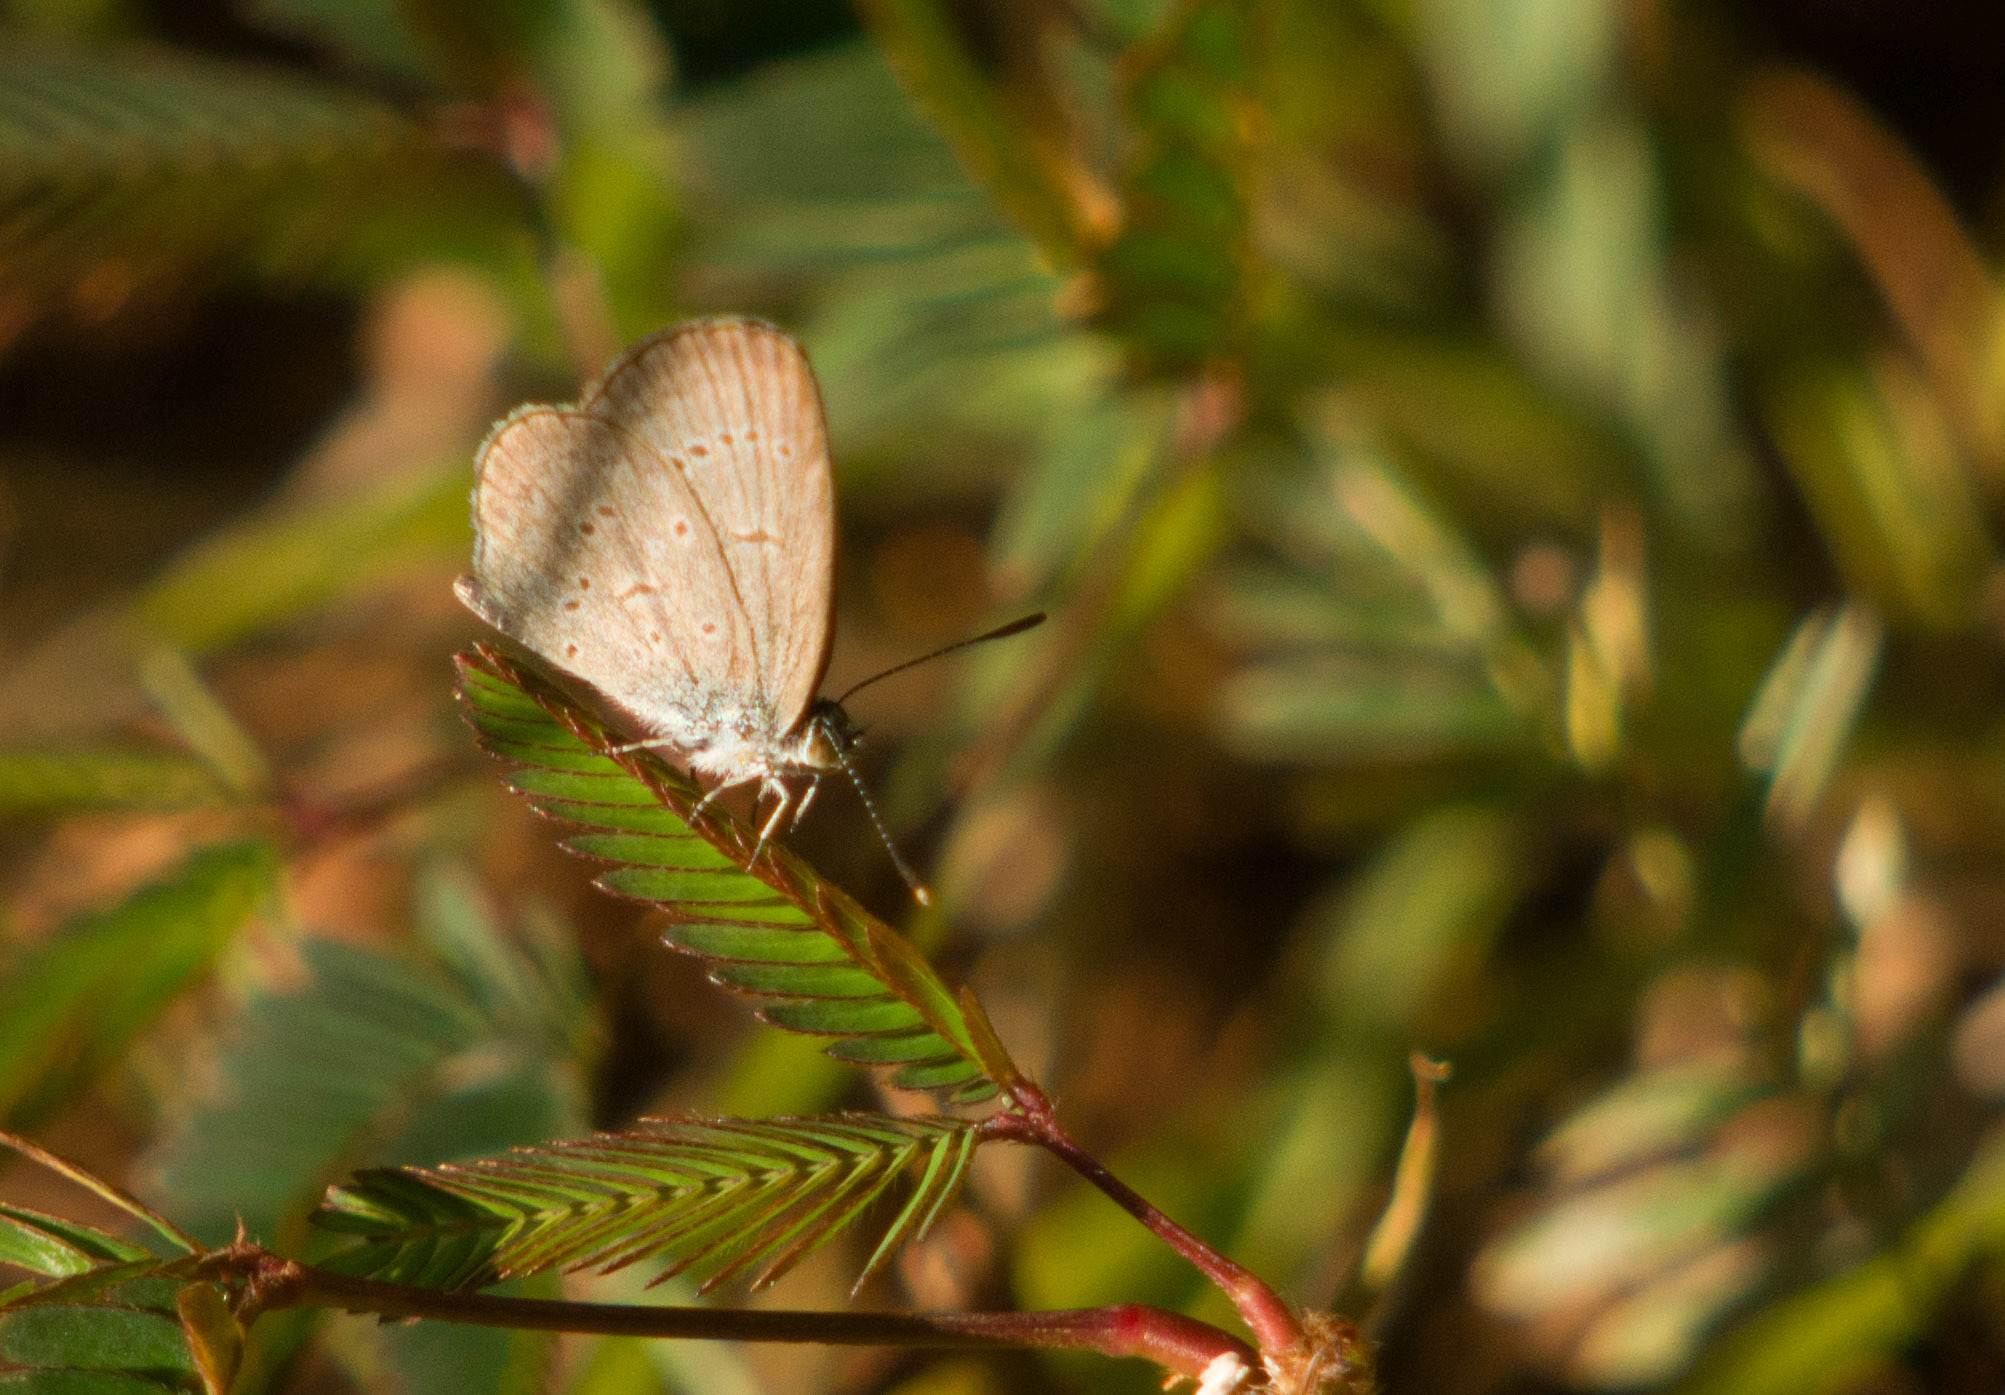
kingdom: Animalia
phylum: Arthropoda
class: Insecta
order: Lepidoptera
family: Lycaenidae
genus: Zizina
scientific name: Zizina otis
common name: Lesser grass blue
